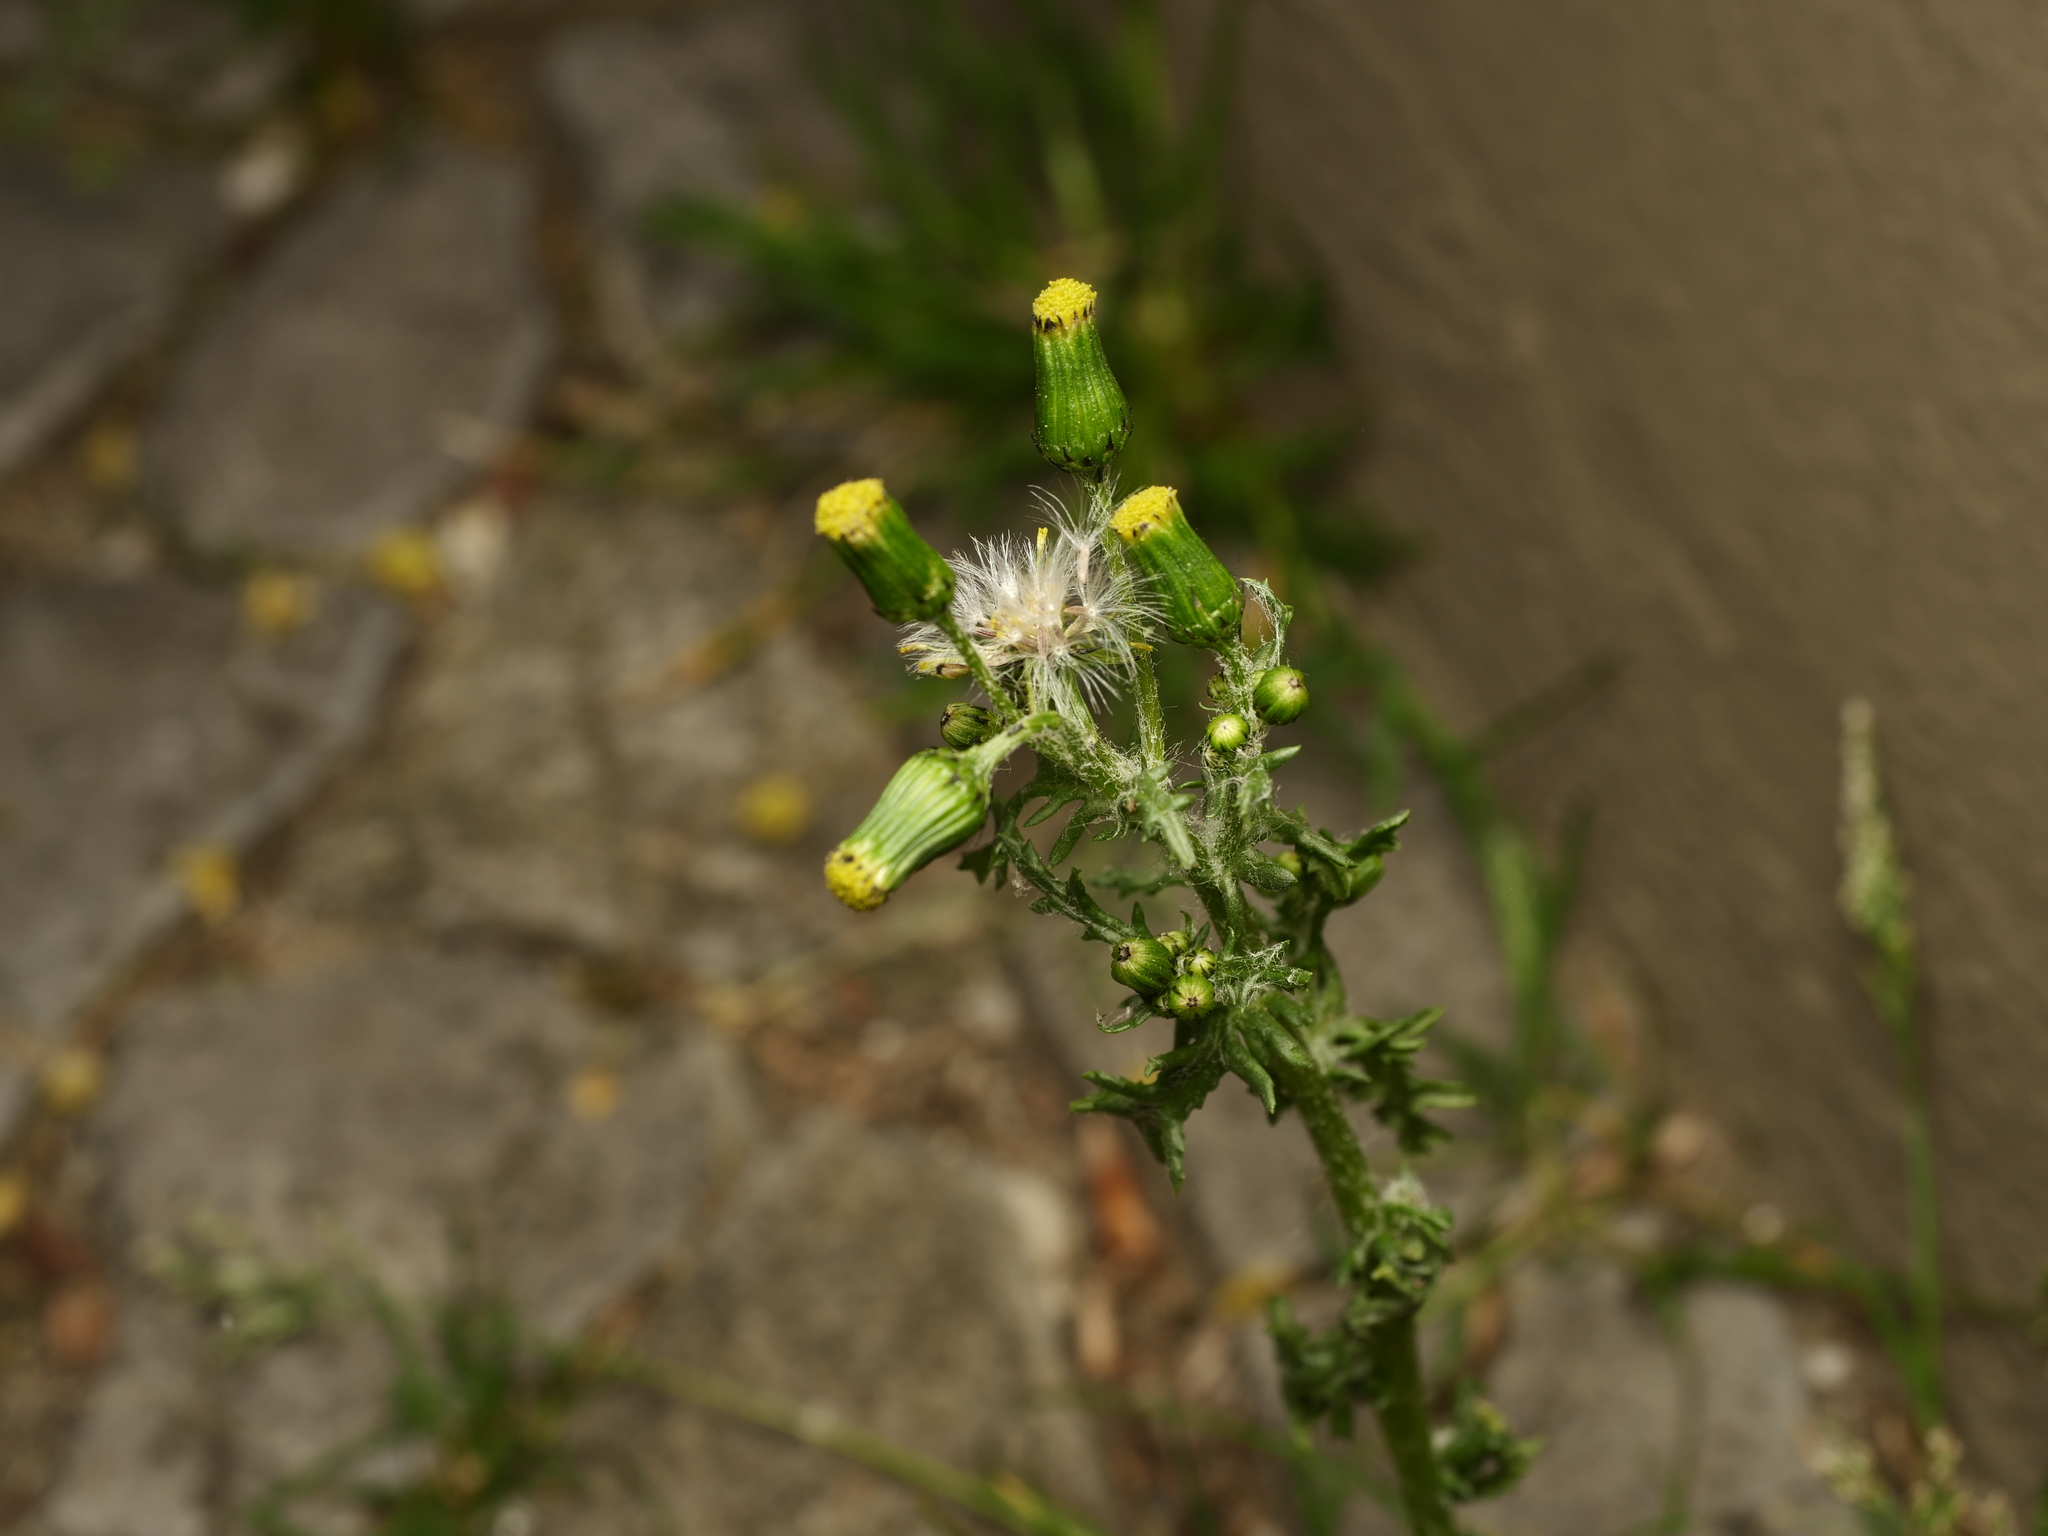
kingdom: Plantae
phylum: Tracheophyta
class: Magnoliopsida
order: Asterales
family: Asteraceae
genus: Senecio
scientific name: Senecio vulgaris
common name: Old-man-in-the-spring
